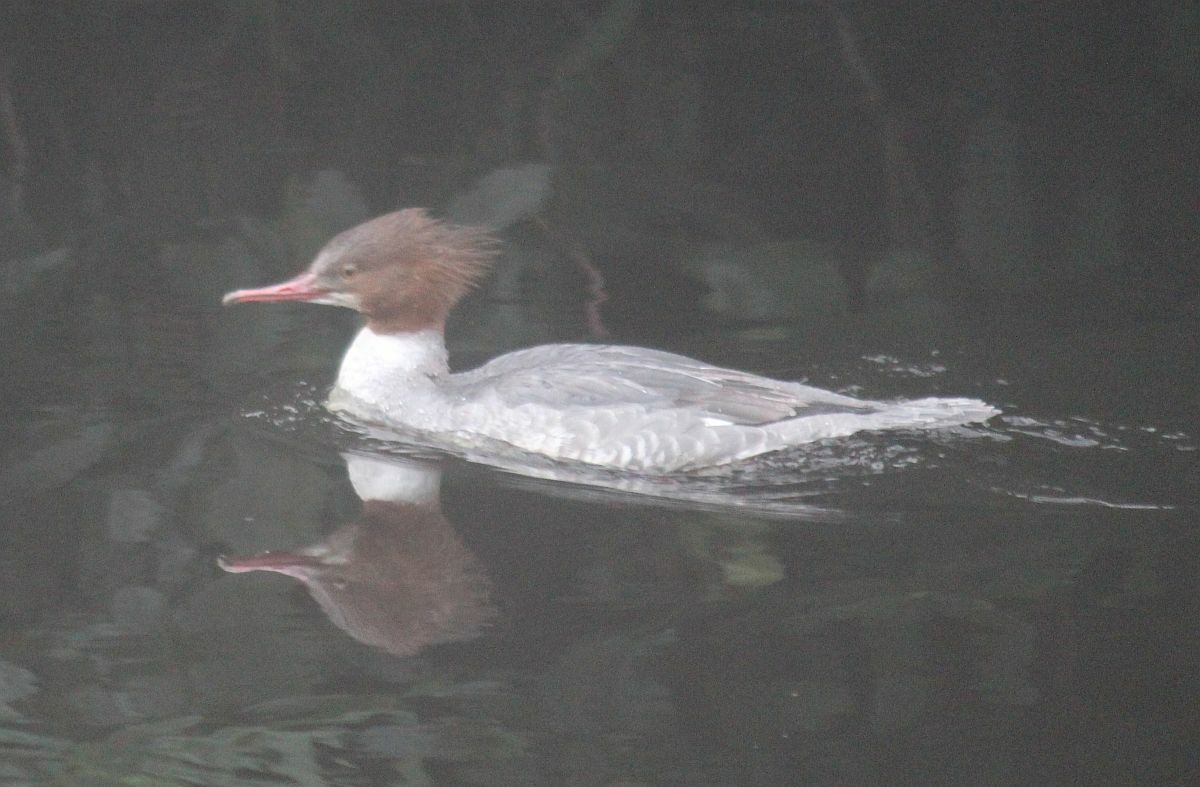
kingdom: Animalia
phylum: Chordata
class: Aves
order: Anseriformes
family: Anatidae
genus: Mergus
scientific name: Mergus merganser
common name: Common merganser
